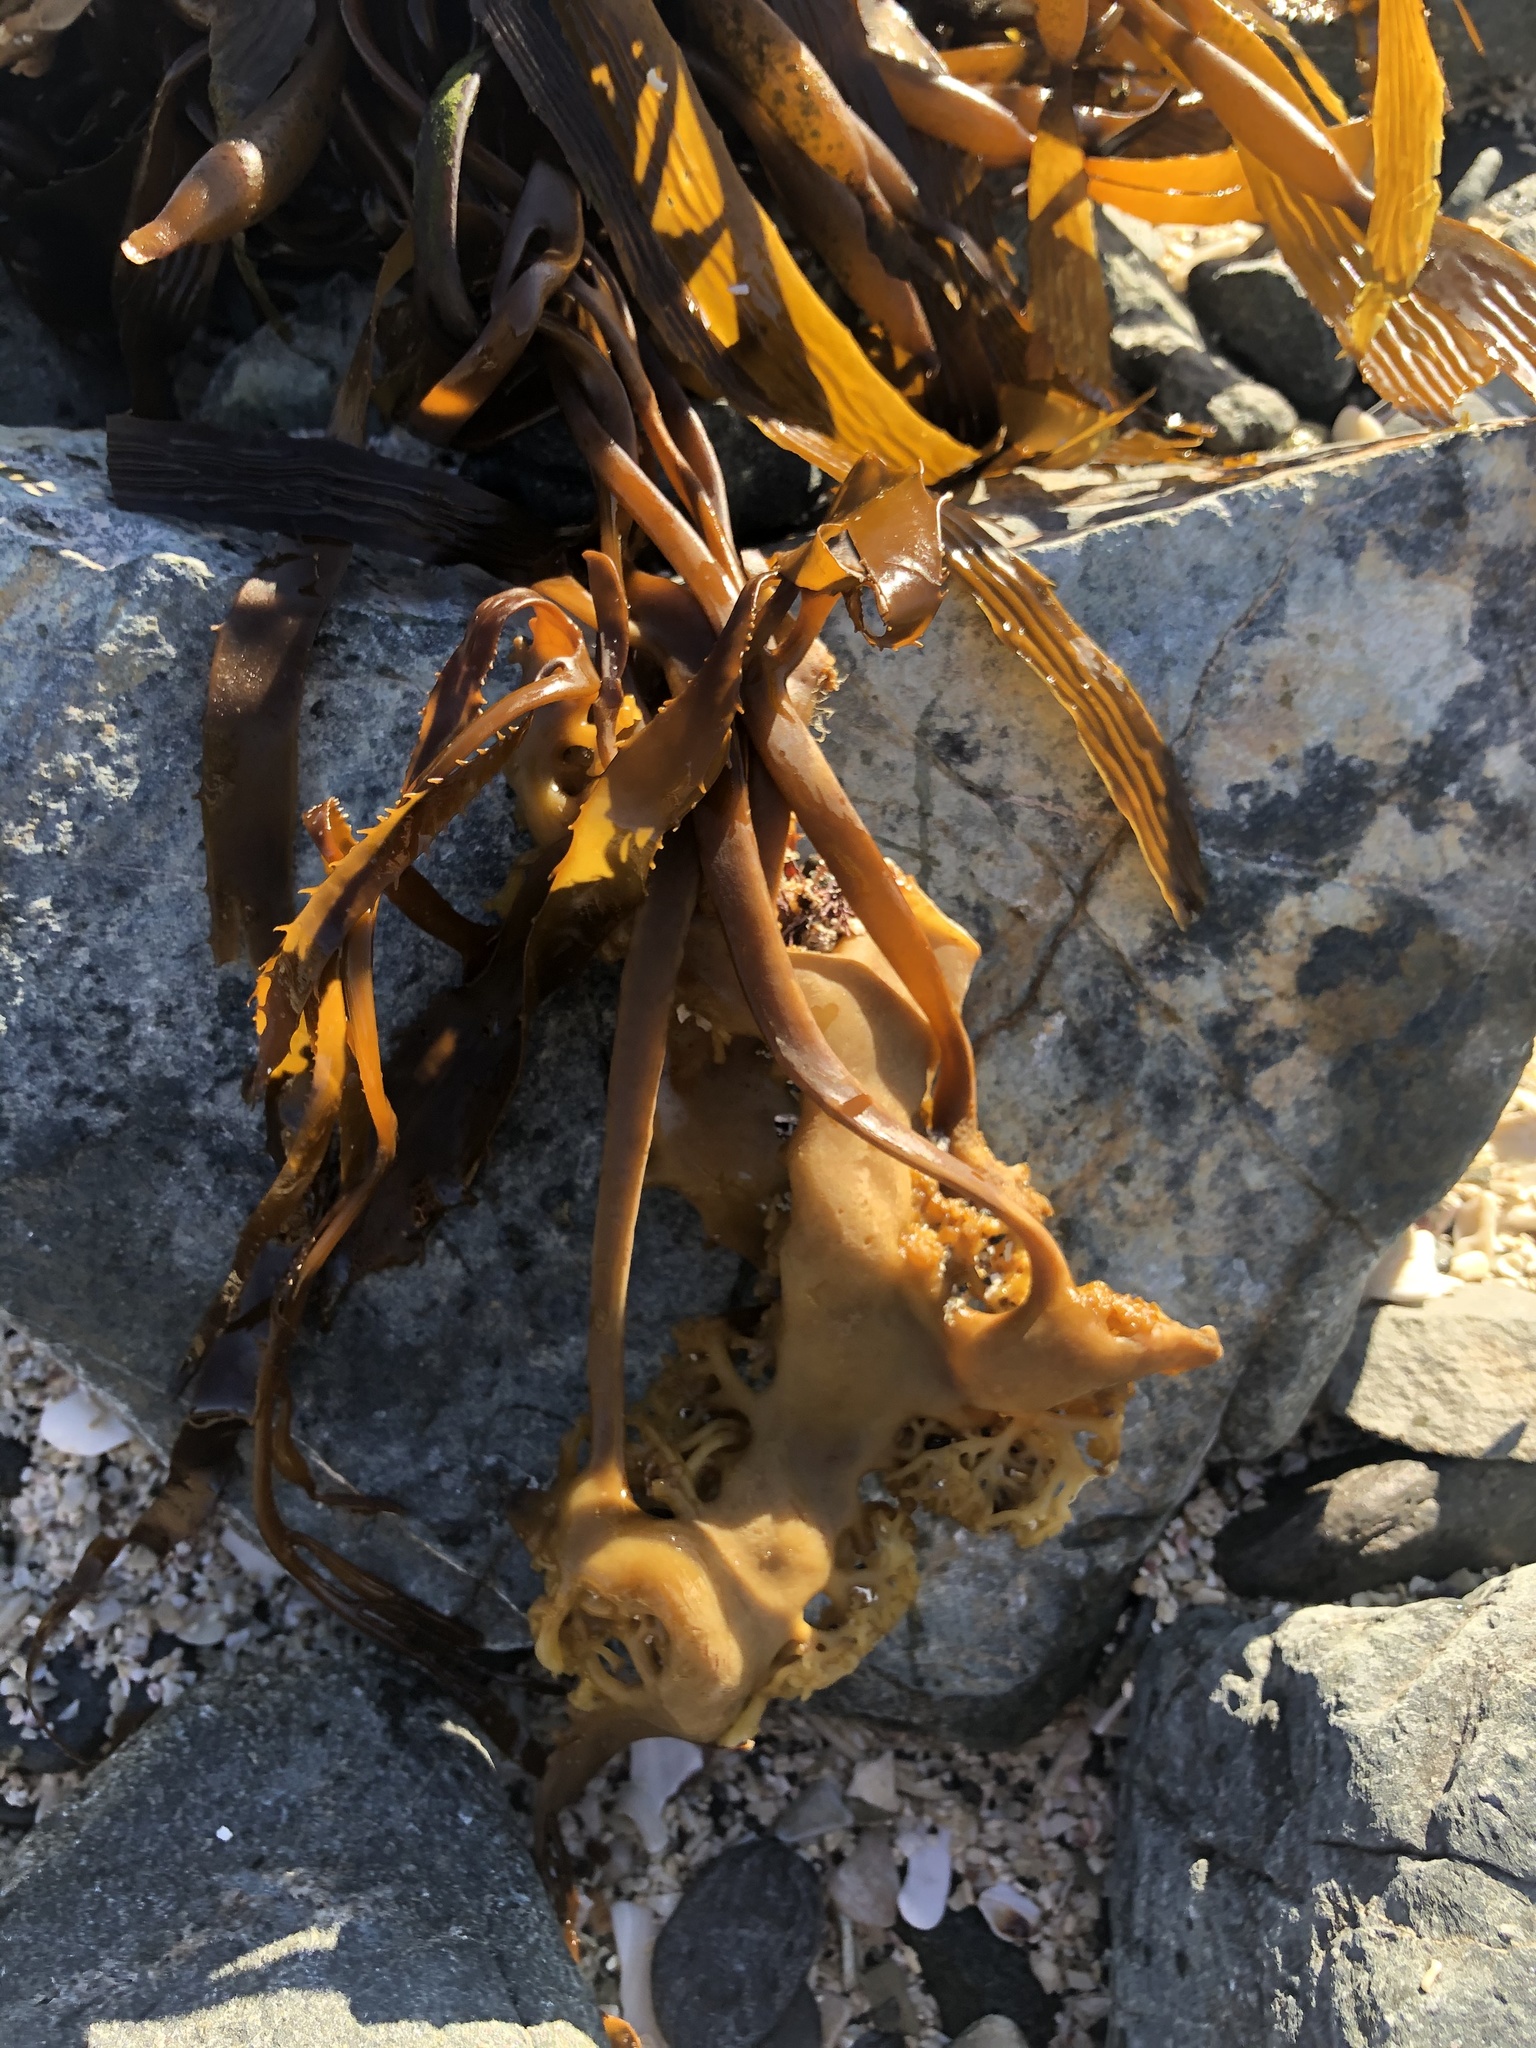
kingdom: Chromista
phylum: Ochrophyta
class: Phaeophyceae
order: Laminariales
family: Laminariaceae
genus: Macrocystis
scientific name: Macrocystis pyrifera
